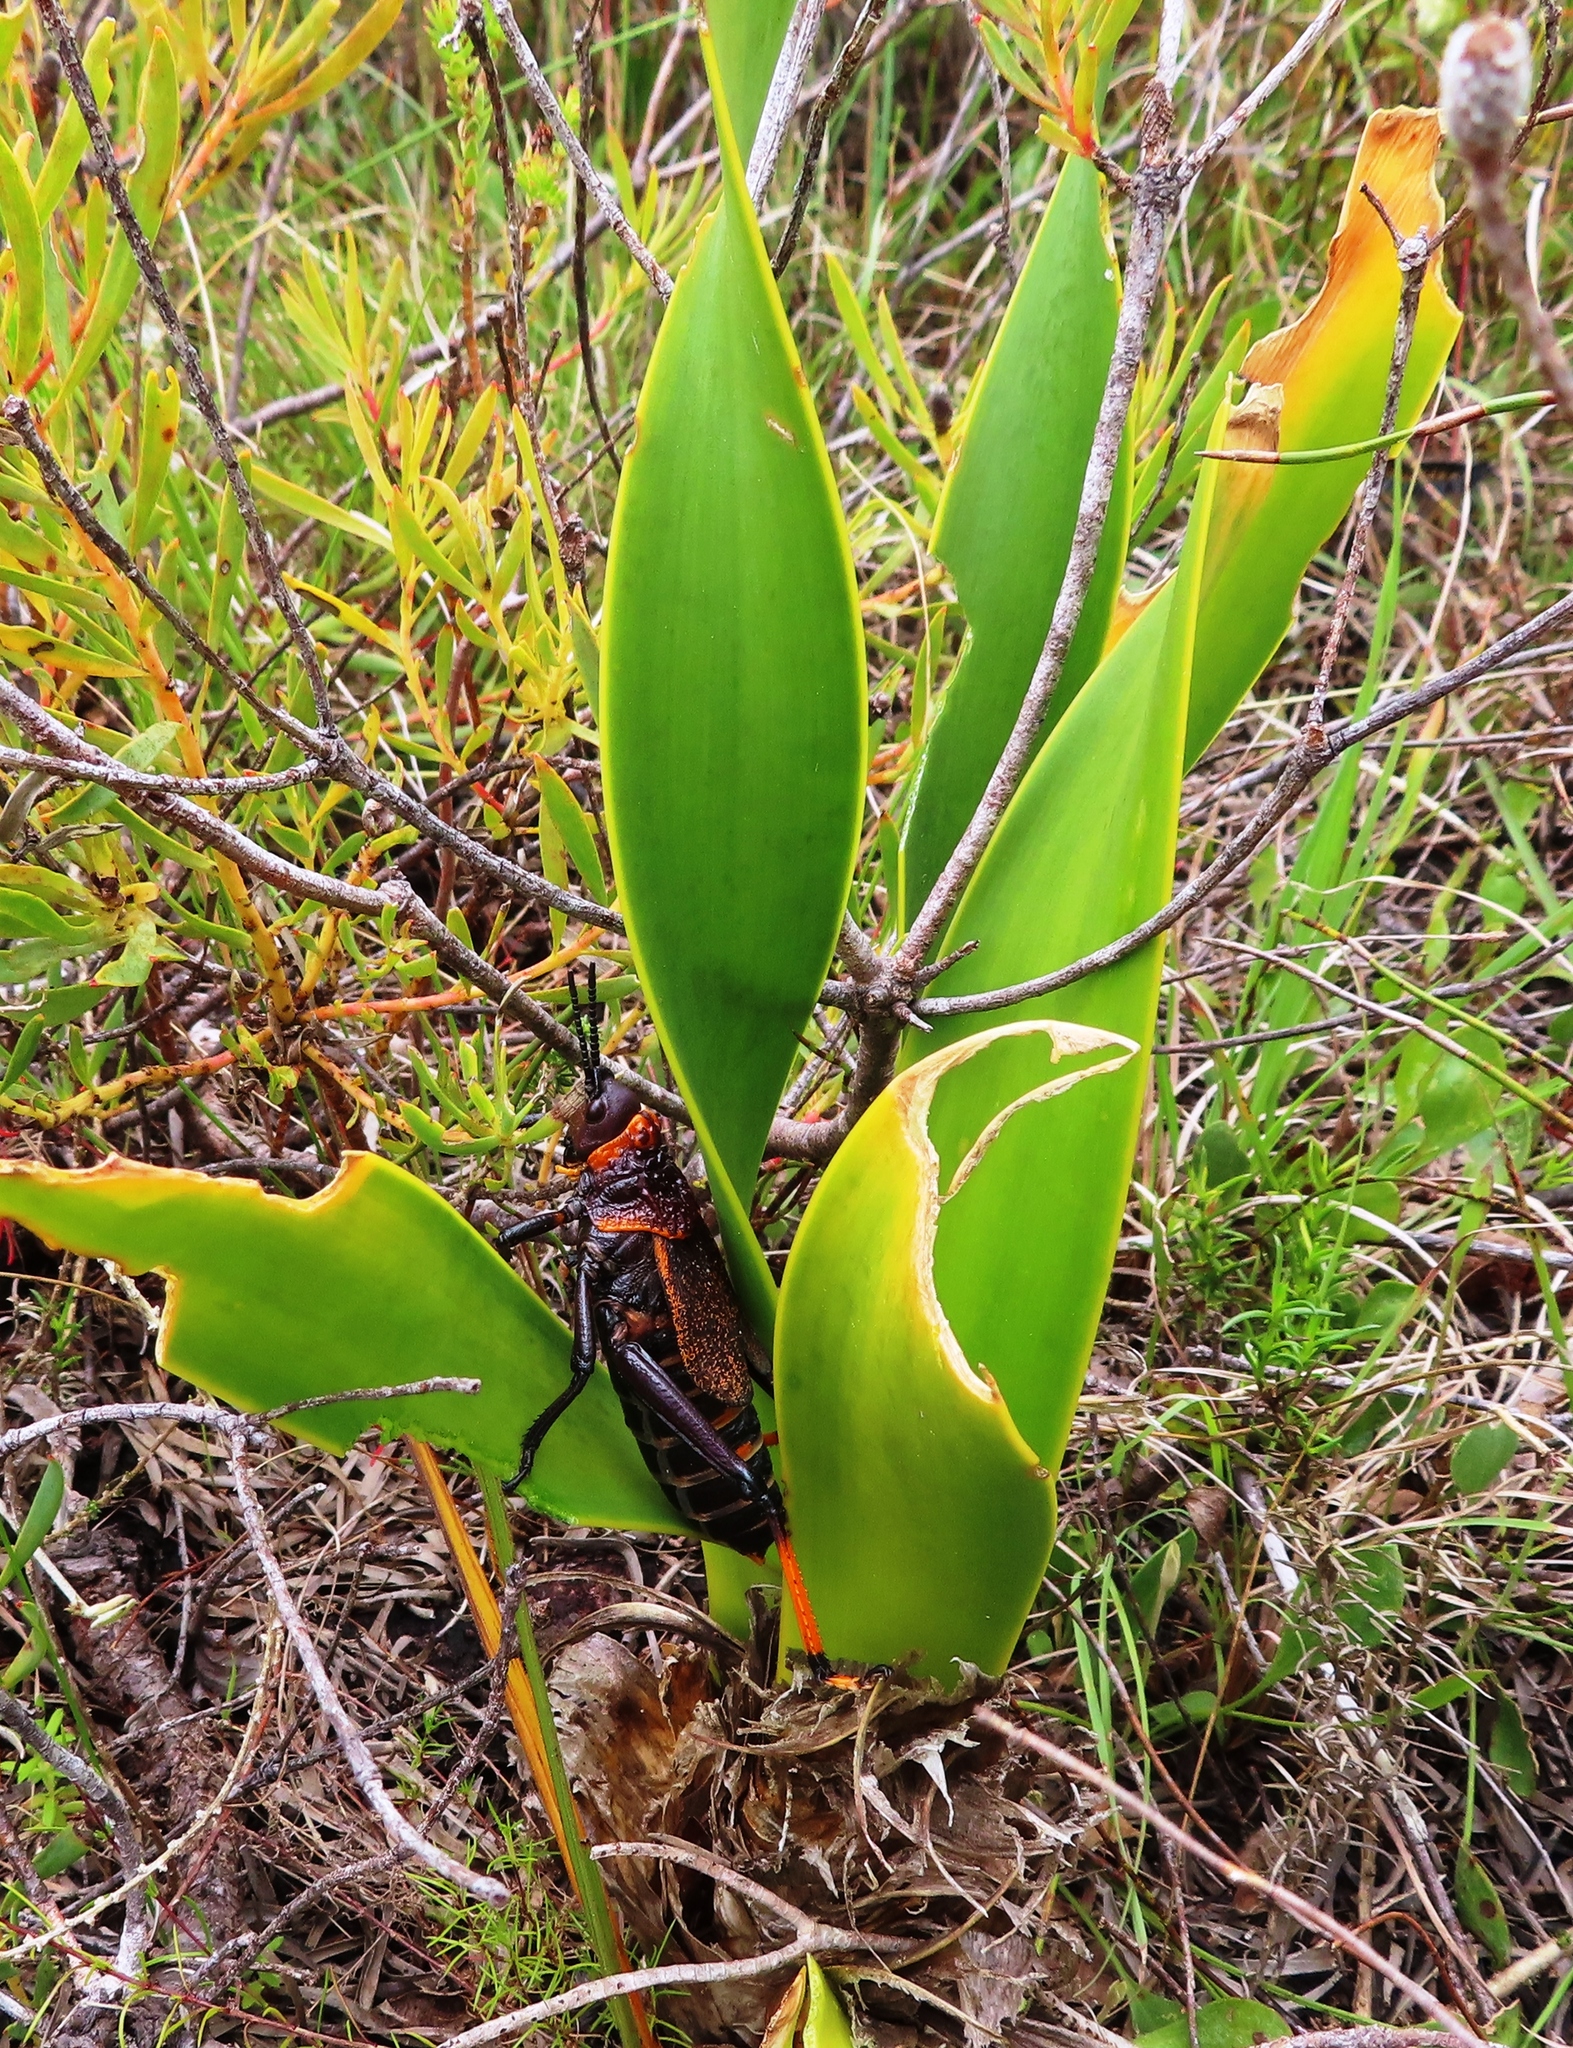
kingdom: Plantae
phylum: Tracheophyta
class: Liliopsida
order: Asparagales
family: Amaryllidaceae
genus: Cyrtanthus
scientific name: Cyrtanthus carneus
